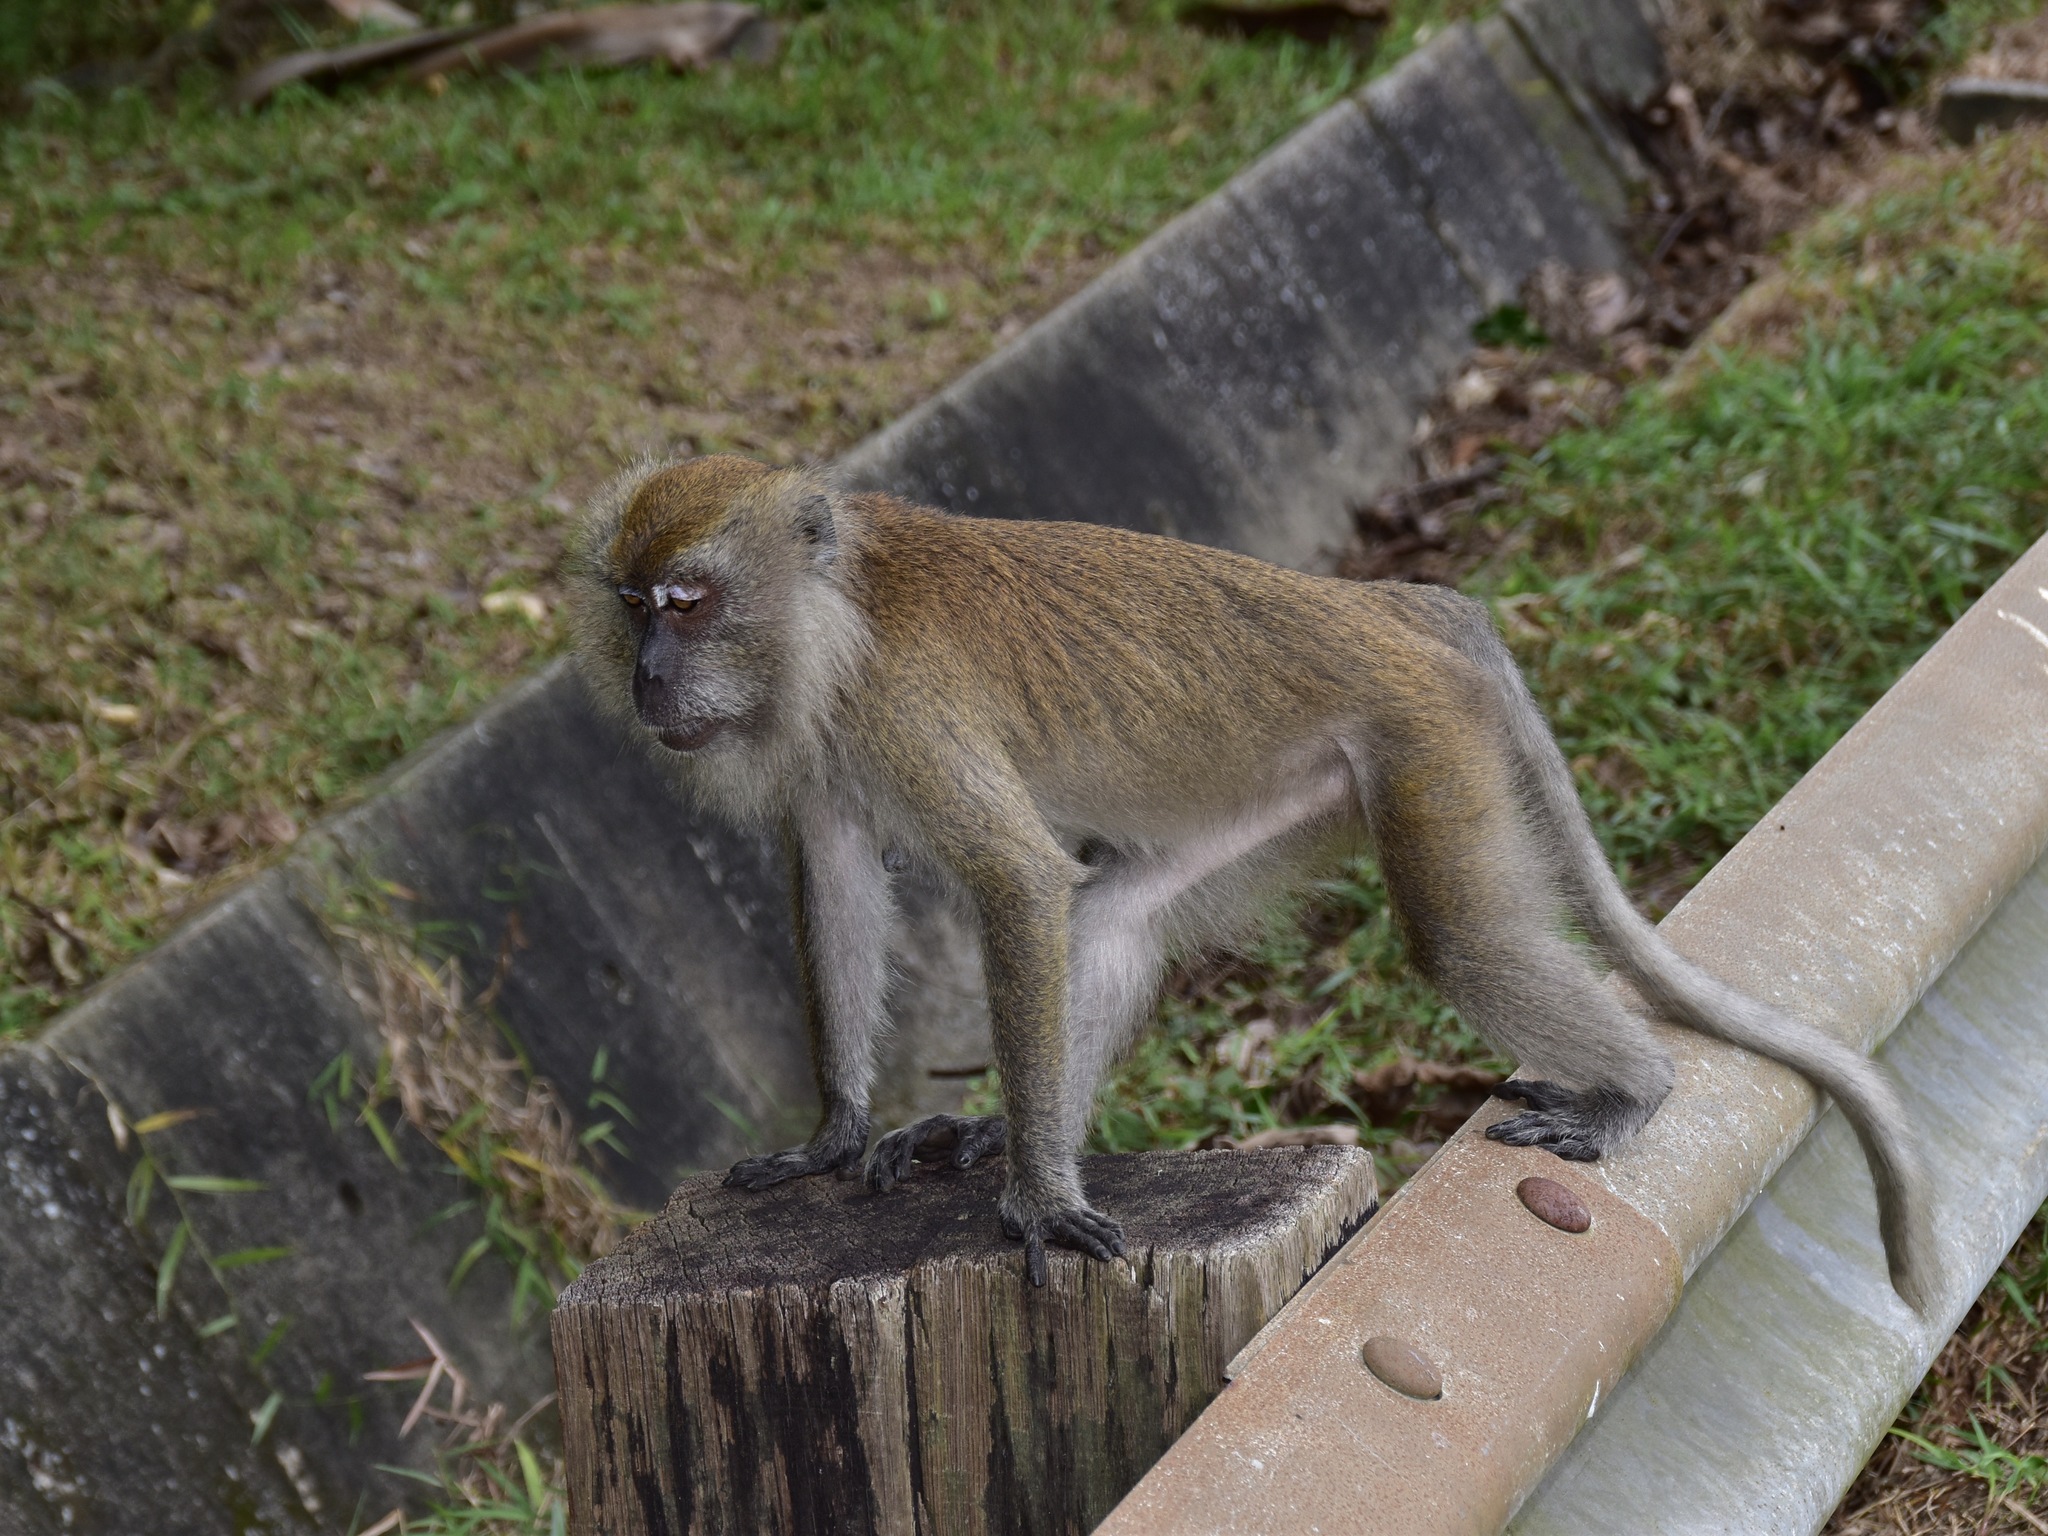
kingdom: Animalia
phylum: Chordata
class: Mammalia
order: Primates
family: Cercopithecidae
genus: Macaca
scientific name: Macaca fascicularis
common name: Crab-eating macaque
